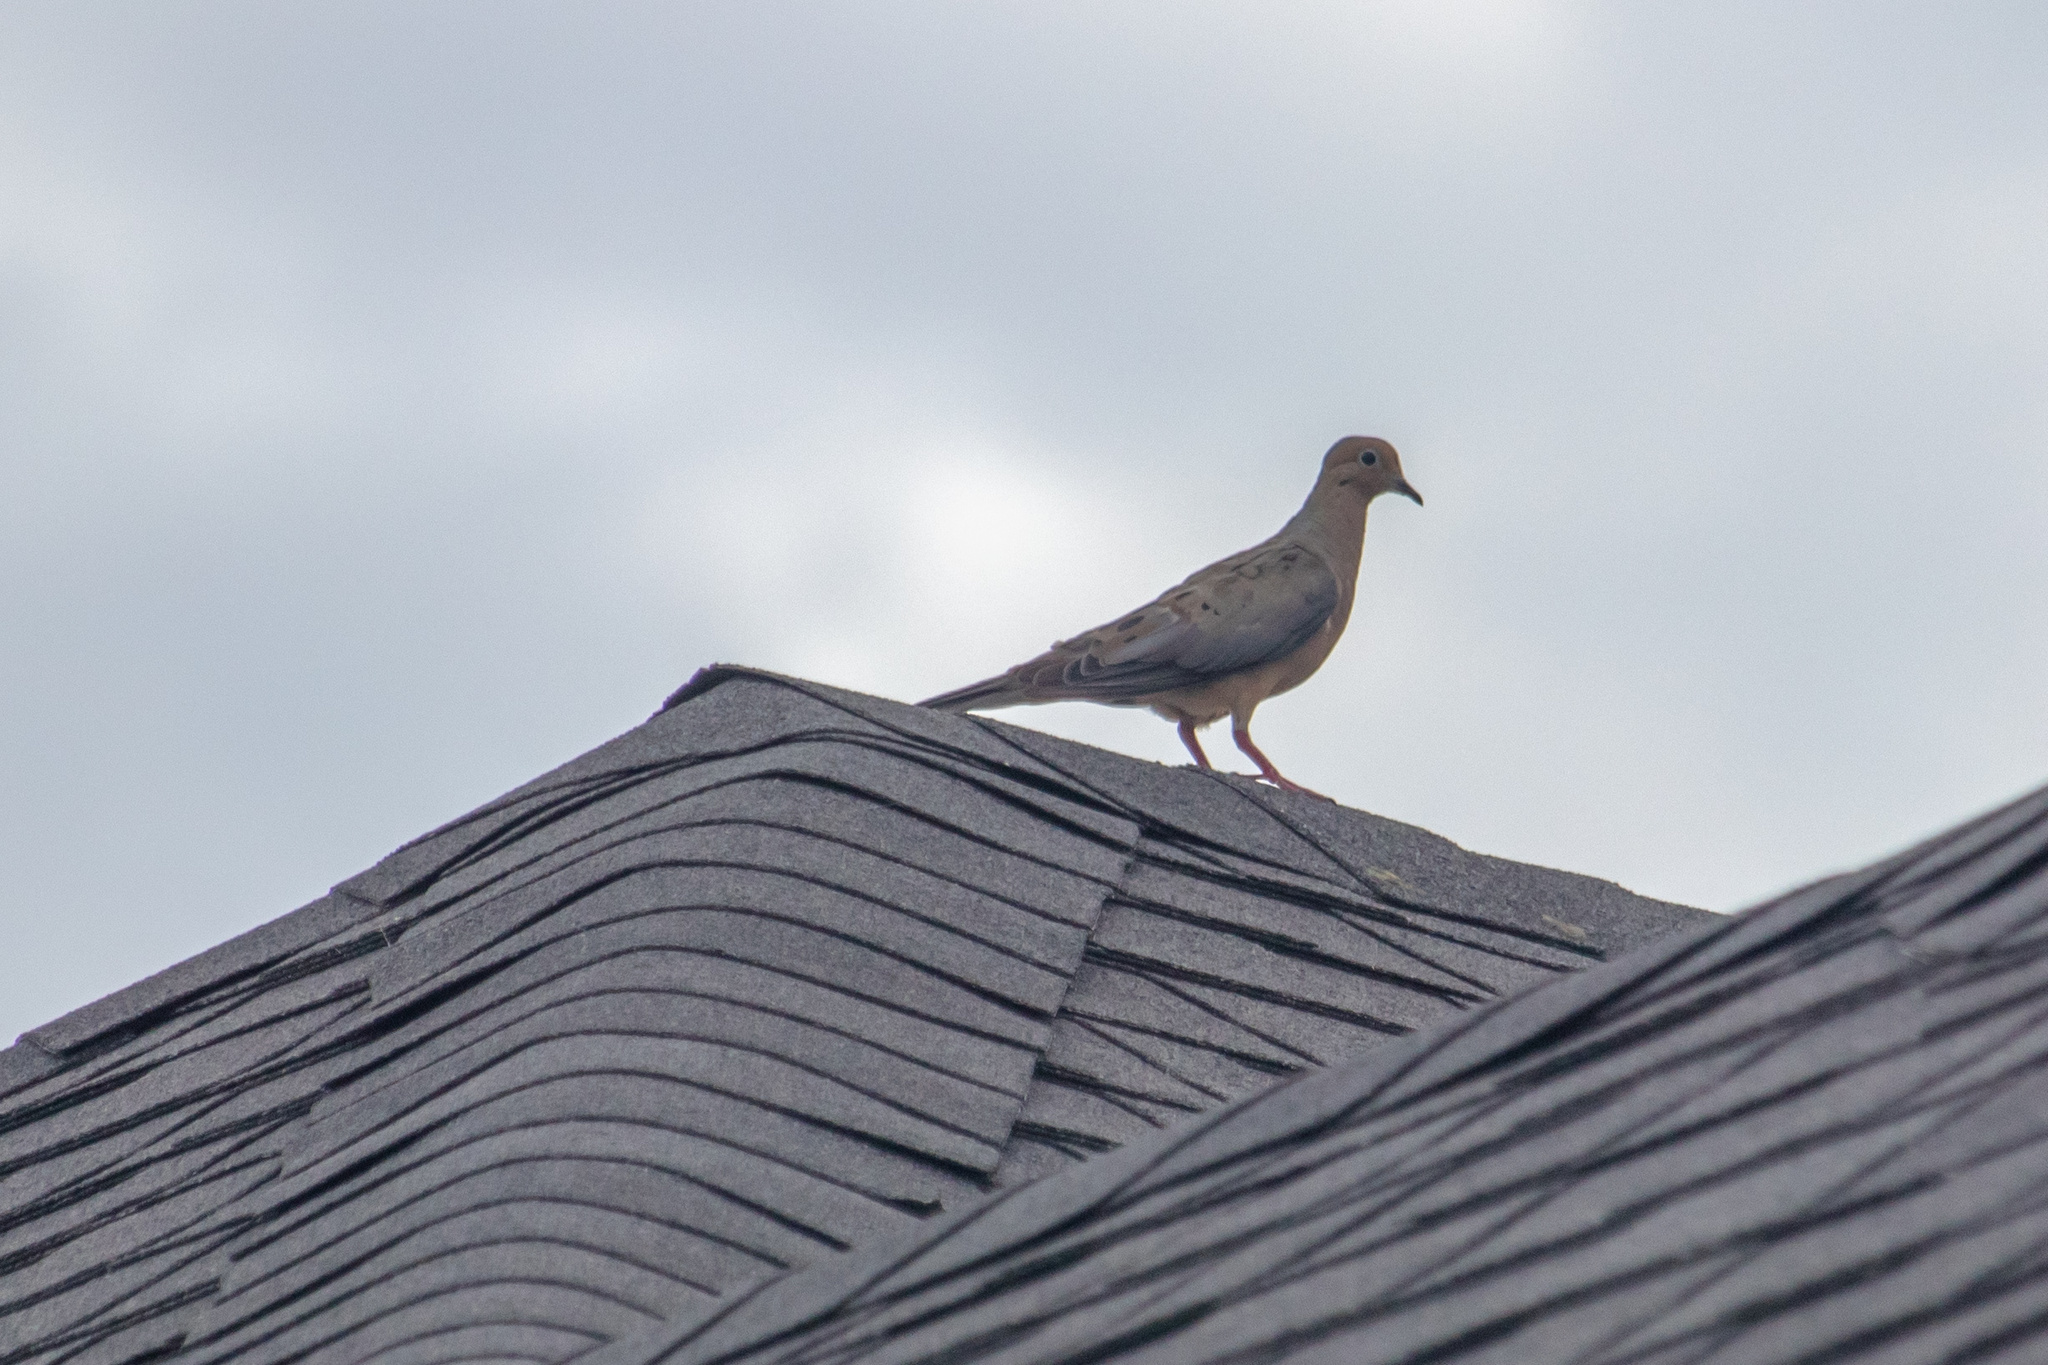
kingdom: Animalia
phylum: Chordata
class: Aves
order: Columbiformes
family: Columbidae
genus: Zenaida
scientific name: Zenaida macroura
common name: Mourning dove
